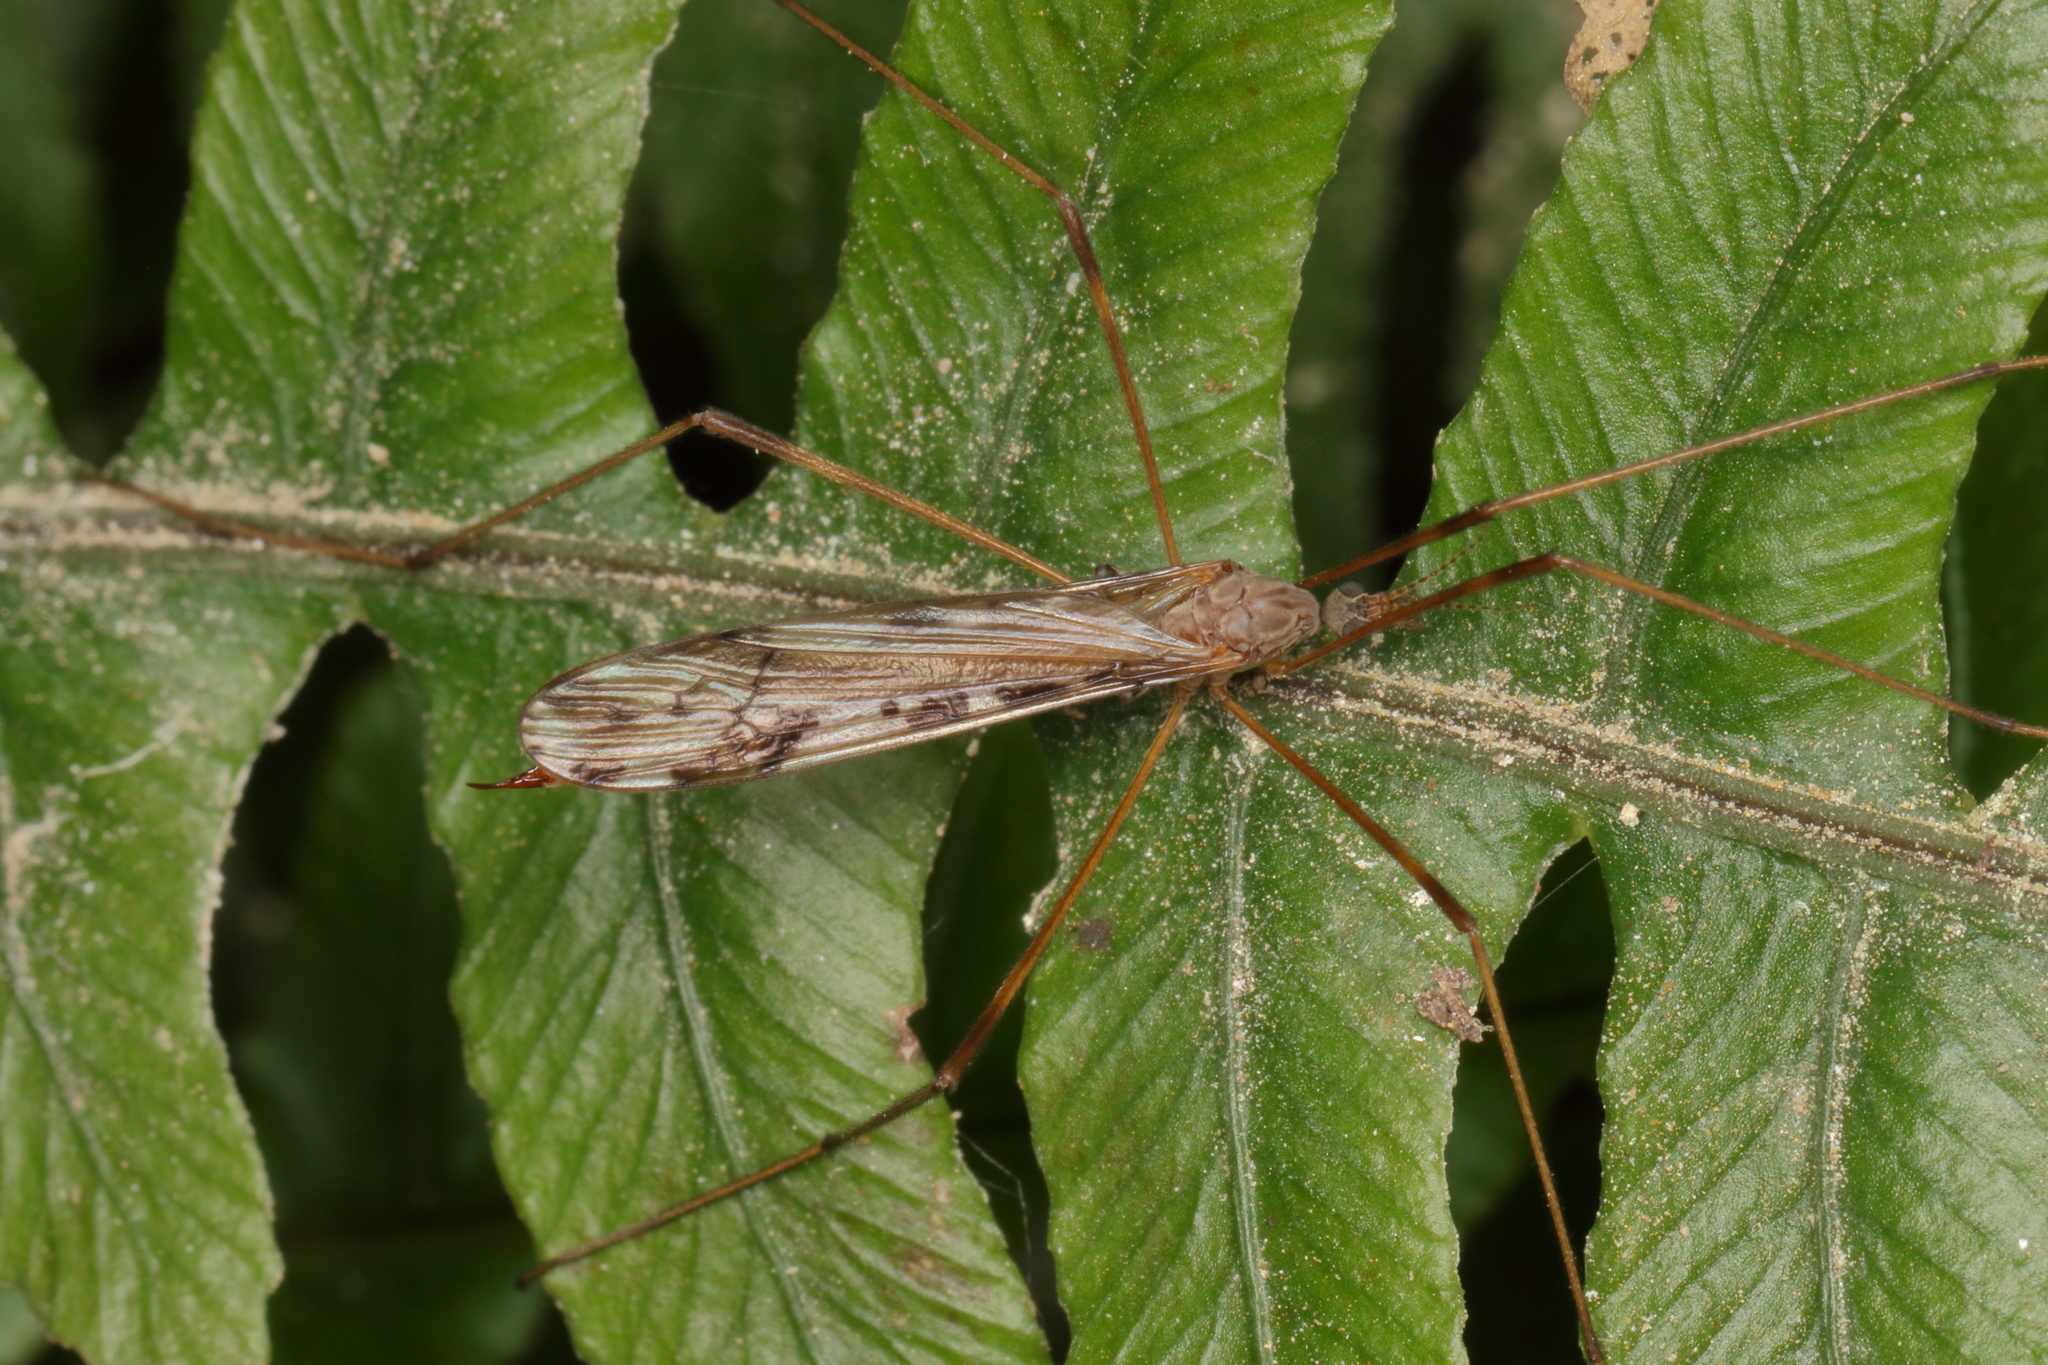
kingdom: Animalia
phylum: Arthropoda
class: Insecta
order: Diptera
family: Limoniidae
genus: Paralimnophila
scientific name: Paralimnophila skusei
